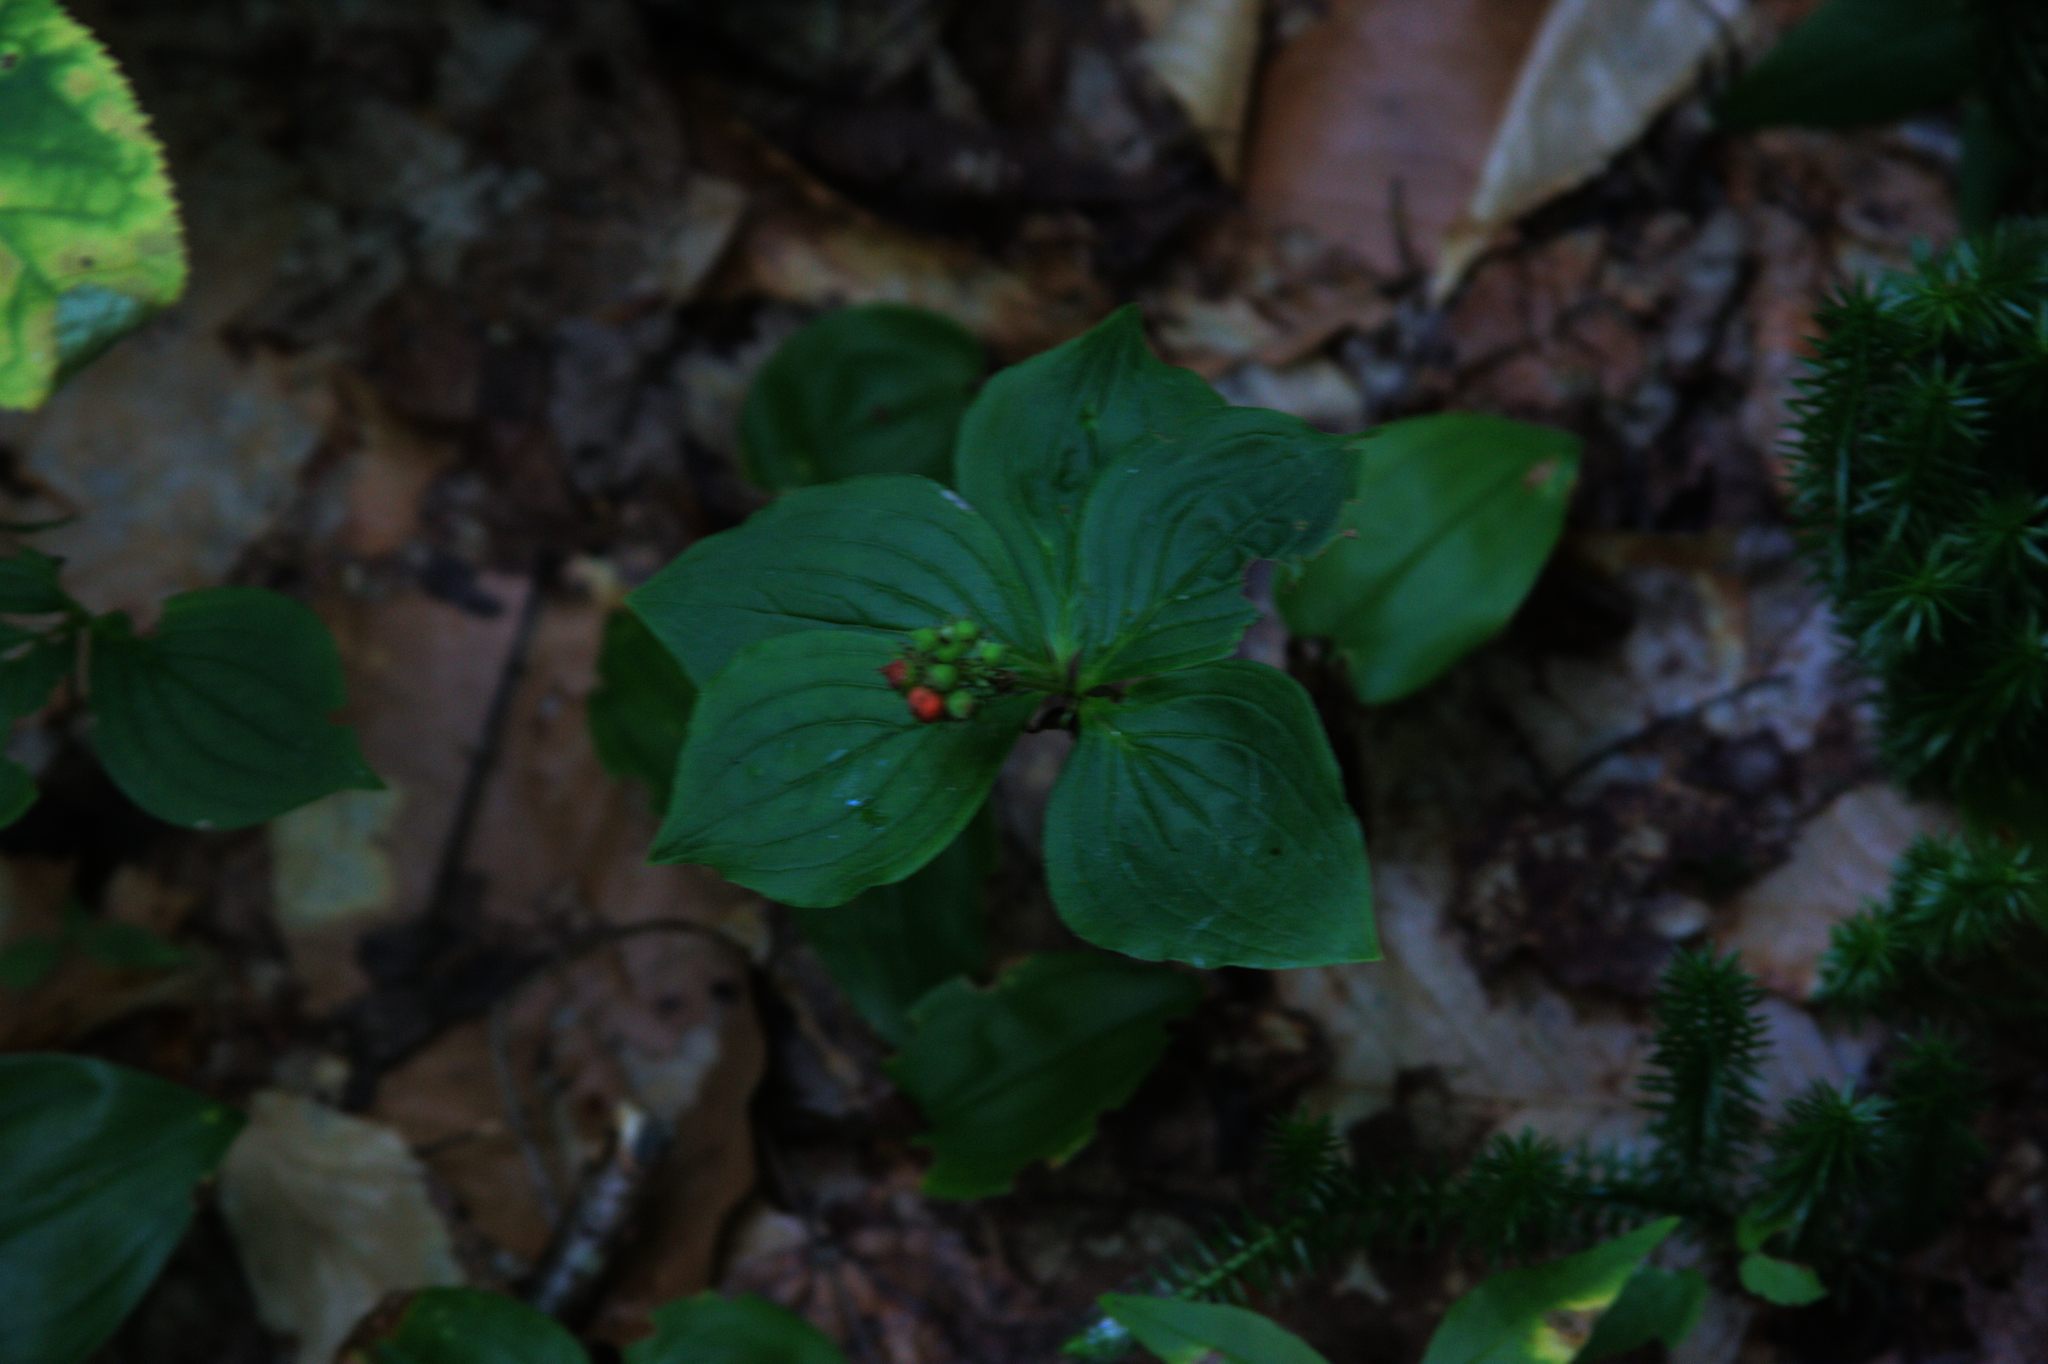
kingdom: Plantae
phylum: Tracheophyta
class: Magnoliopsida
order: Cornales
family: Cornaceae
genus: Cornus
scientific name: Cornus canadensis
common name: Creeping dogwood
